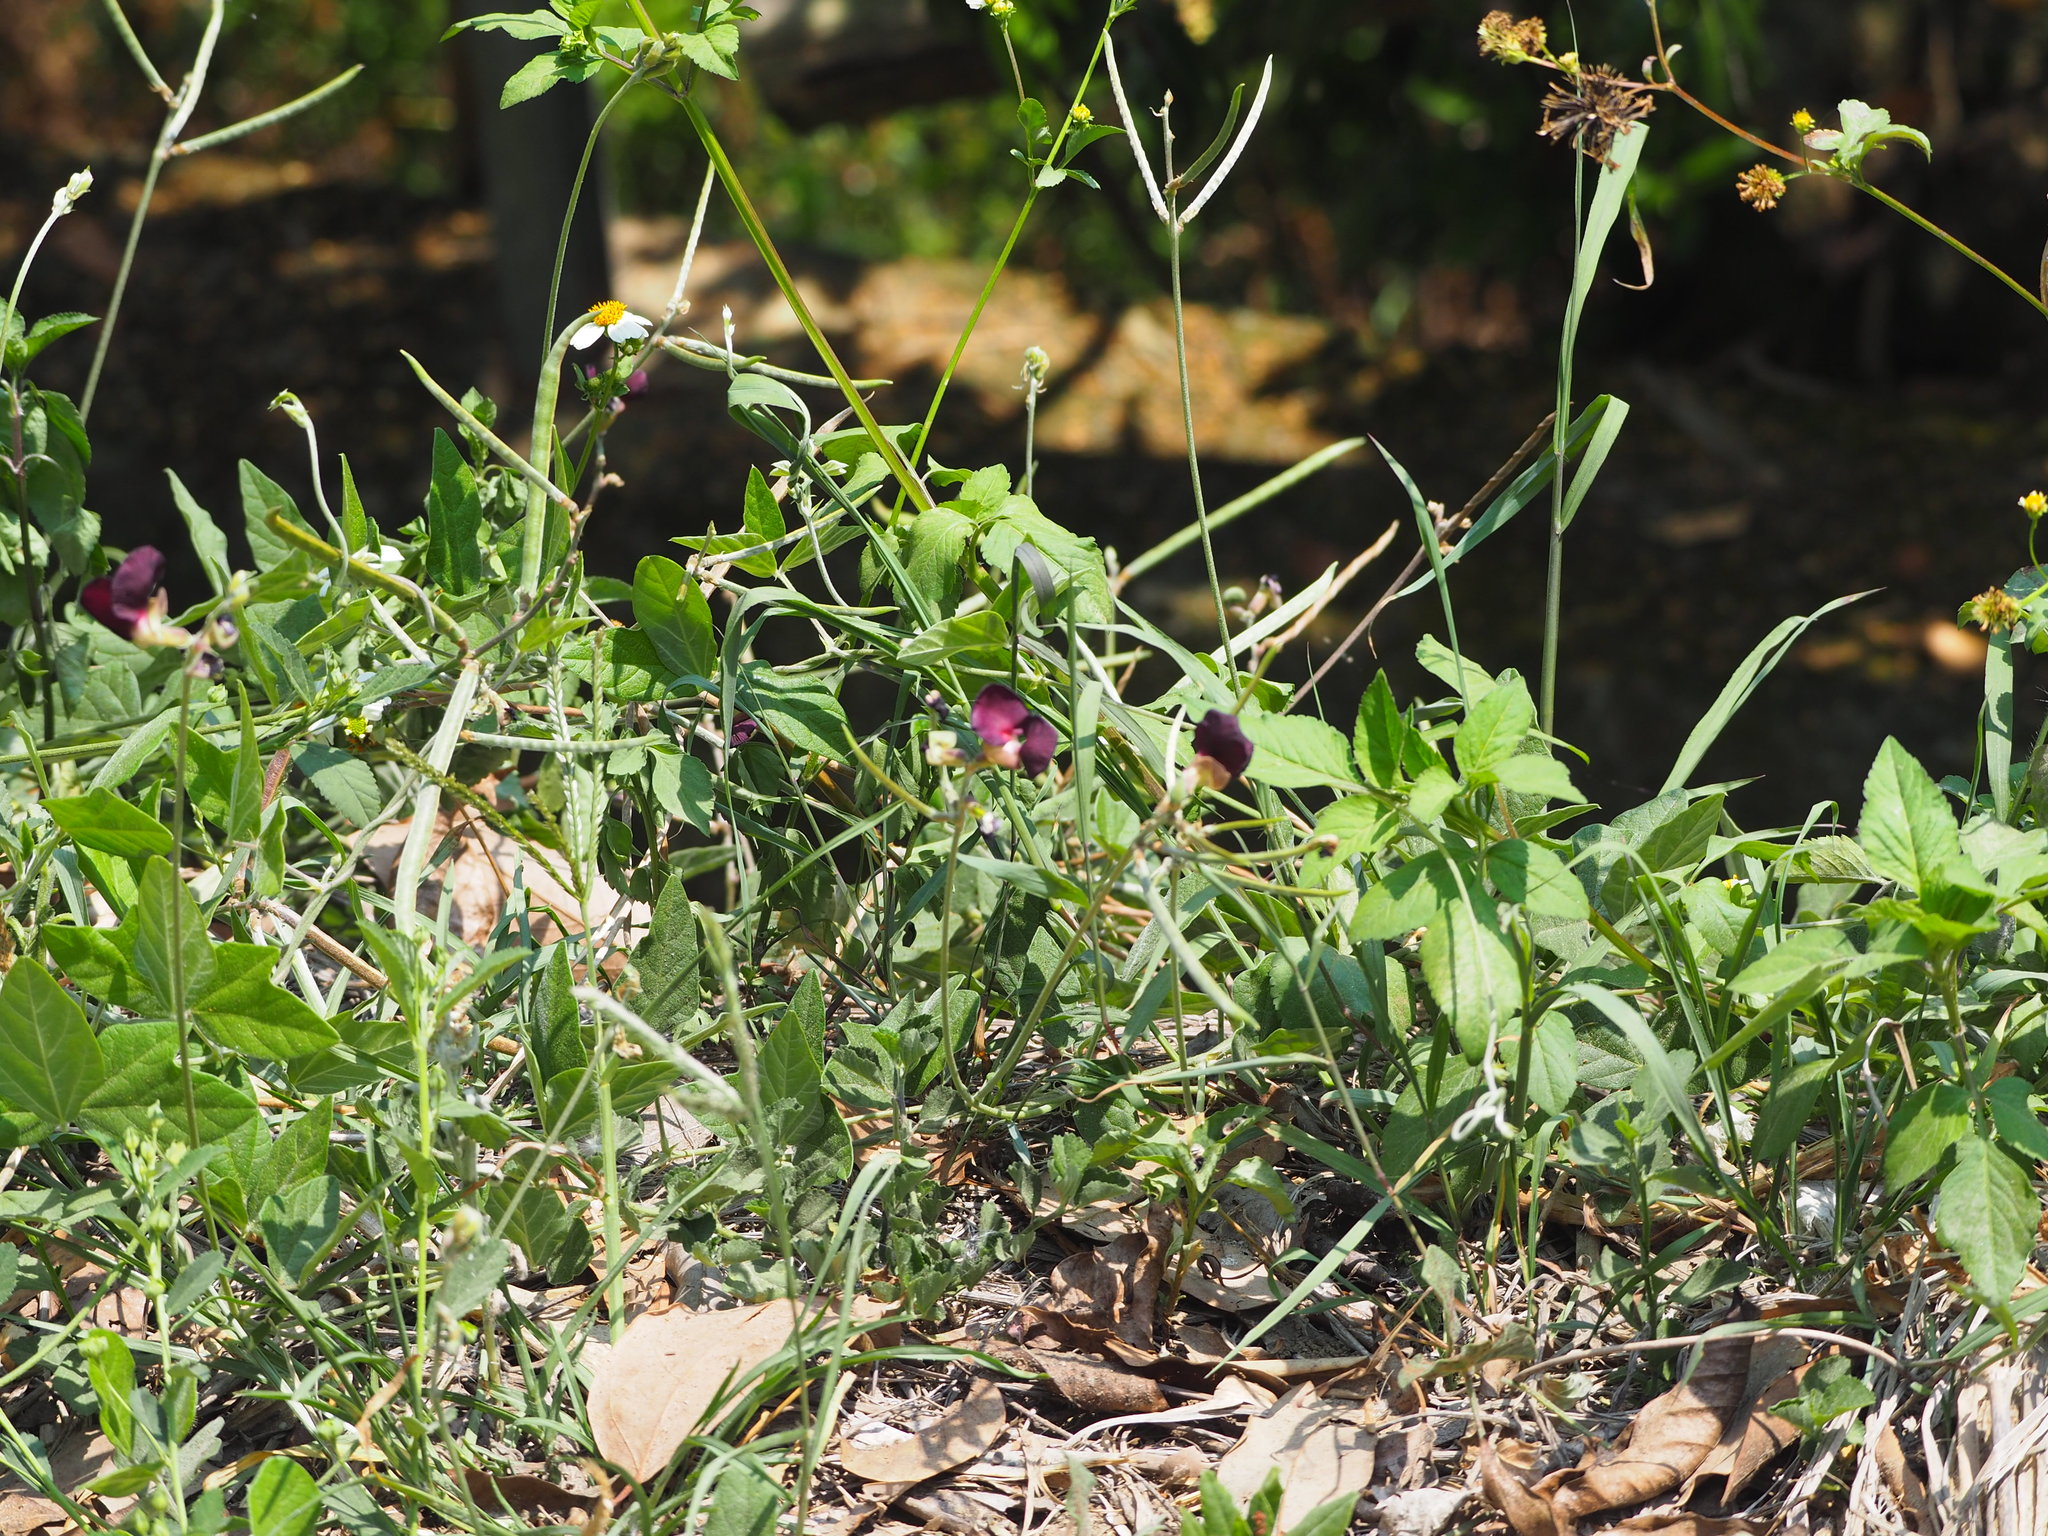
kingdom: Plantae
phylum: Tracheophyta
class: Magnoliopsida
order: Fabales
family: Fabaceae
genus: Macroptilium
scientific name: Macroptilium atropurpureum
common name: Purple bushbean
